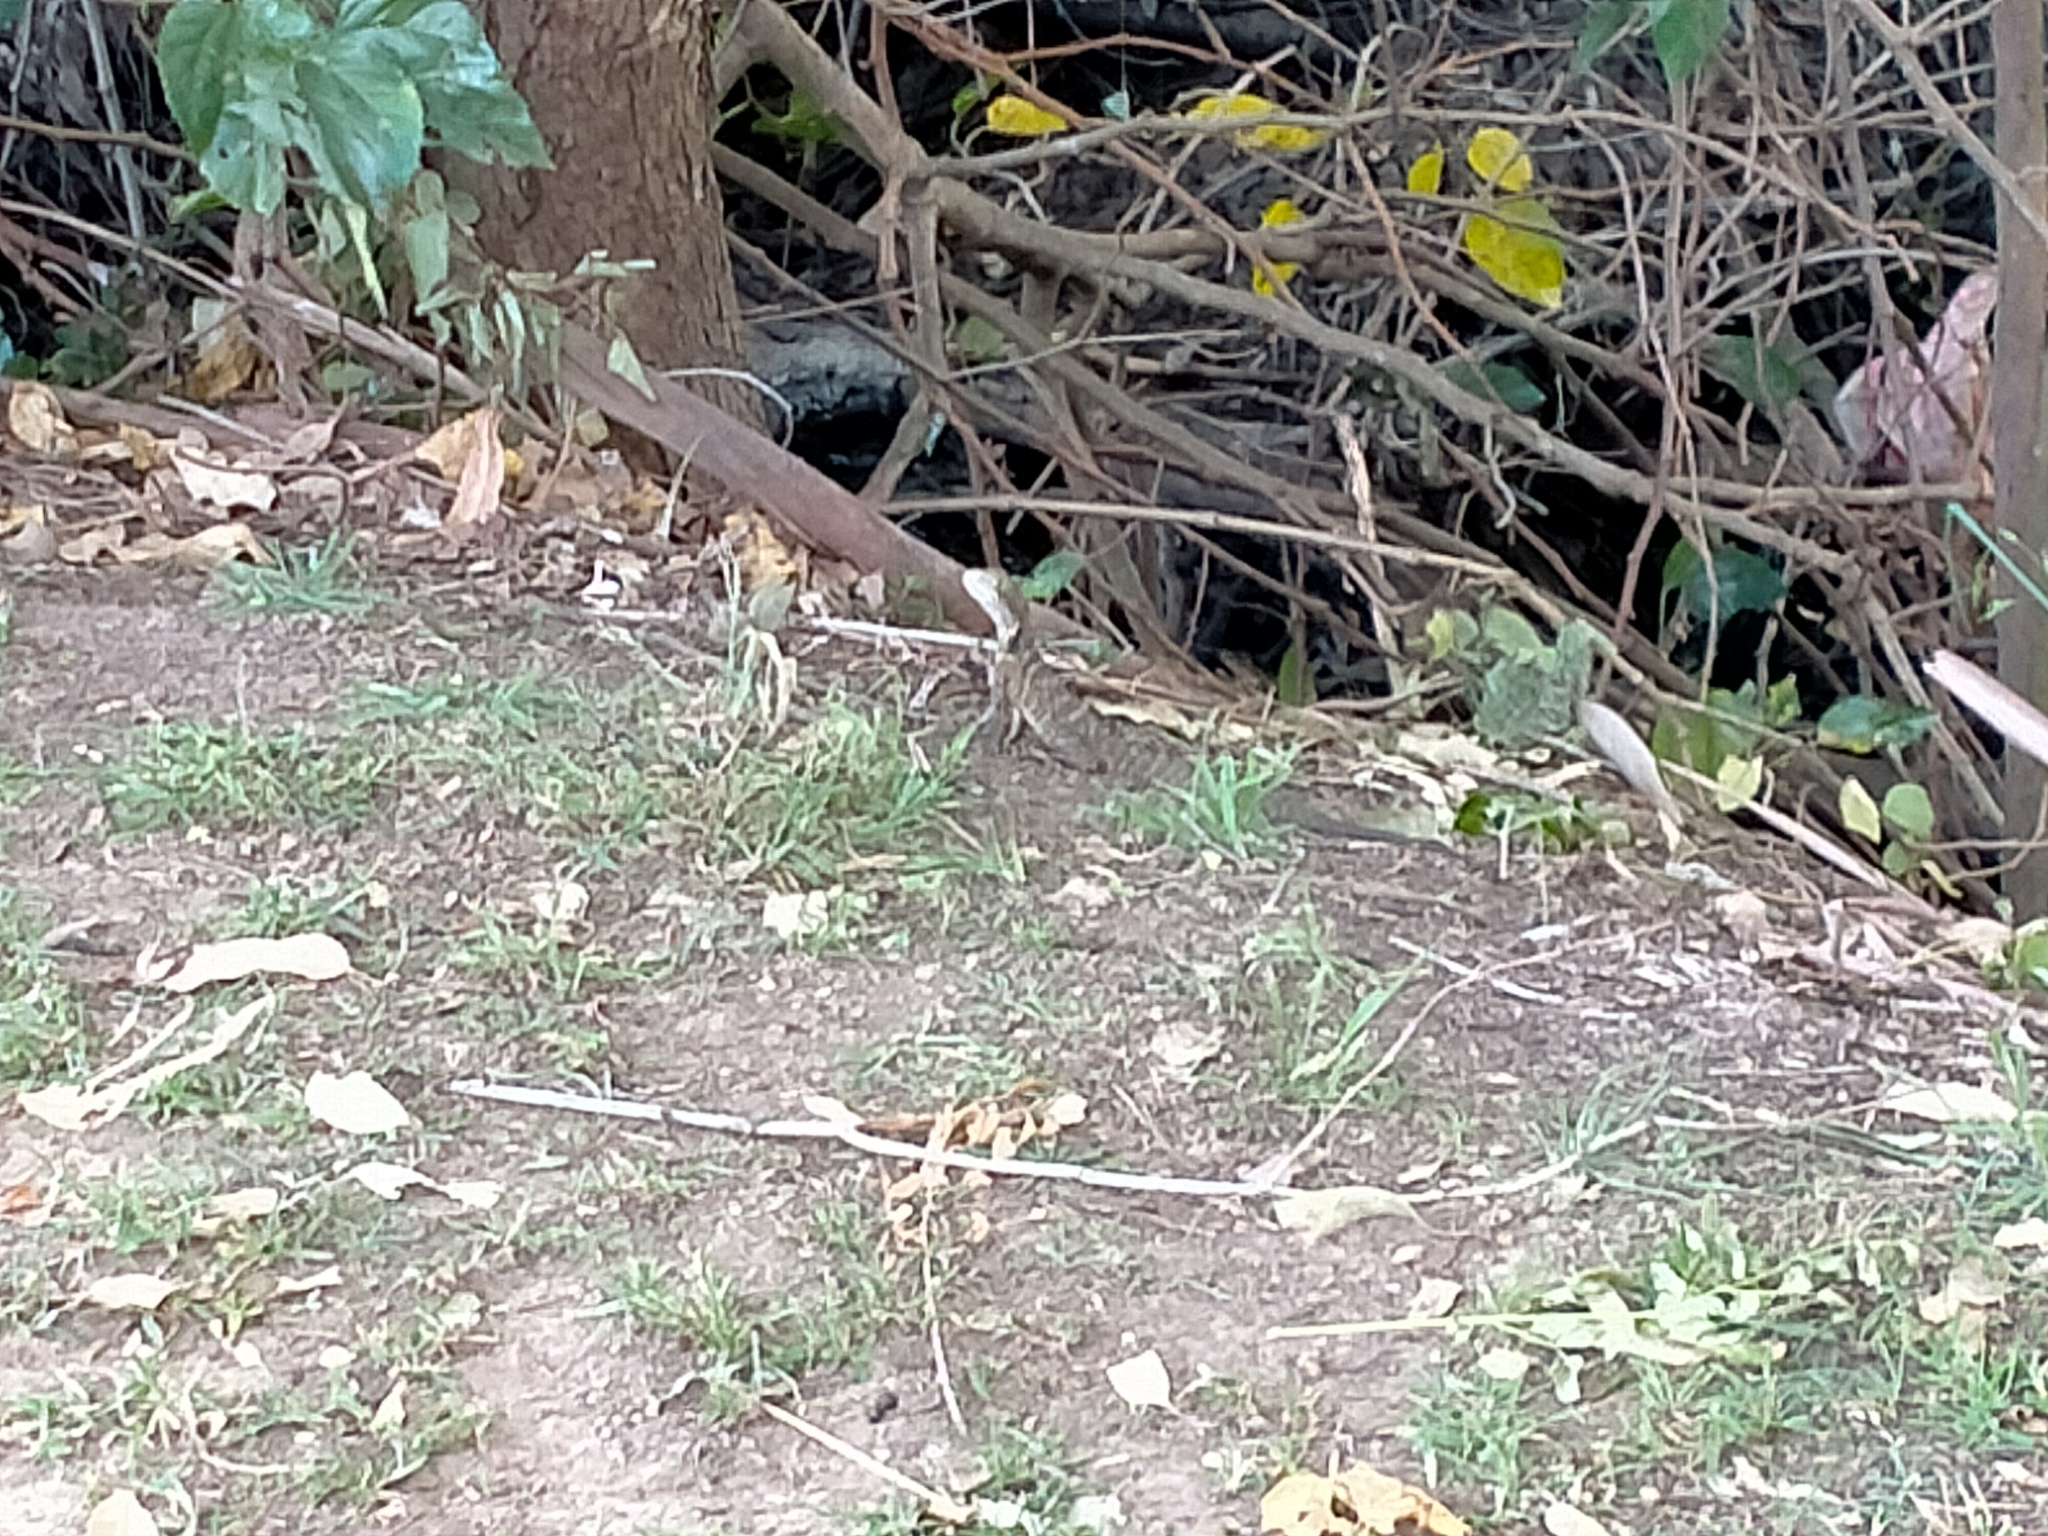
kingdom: Animalia
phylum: Chordata
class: Squamata
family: Agamidae
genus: Intellagama
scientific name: Intellagama lesueurii
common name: Eastern water dragon
